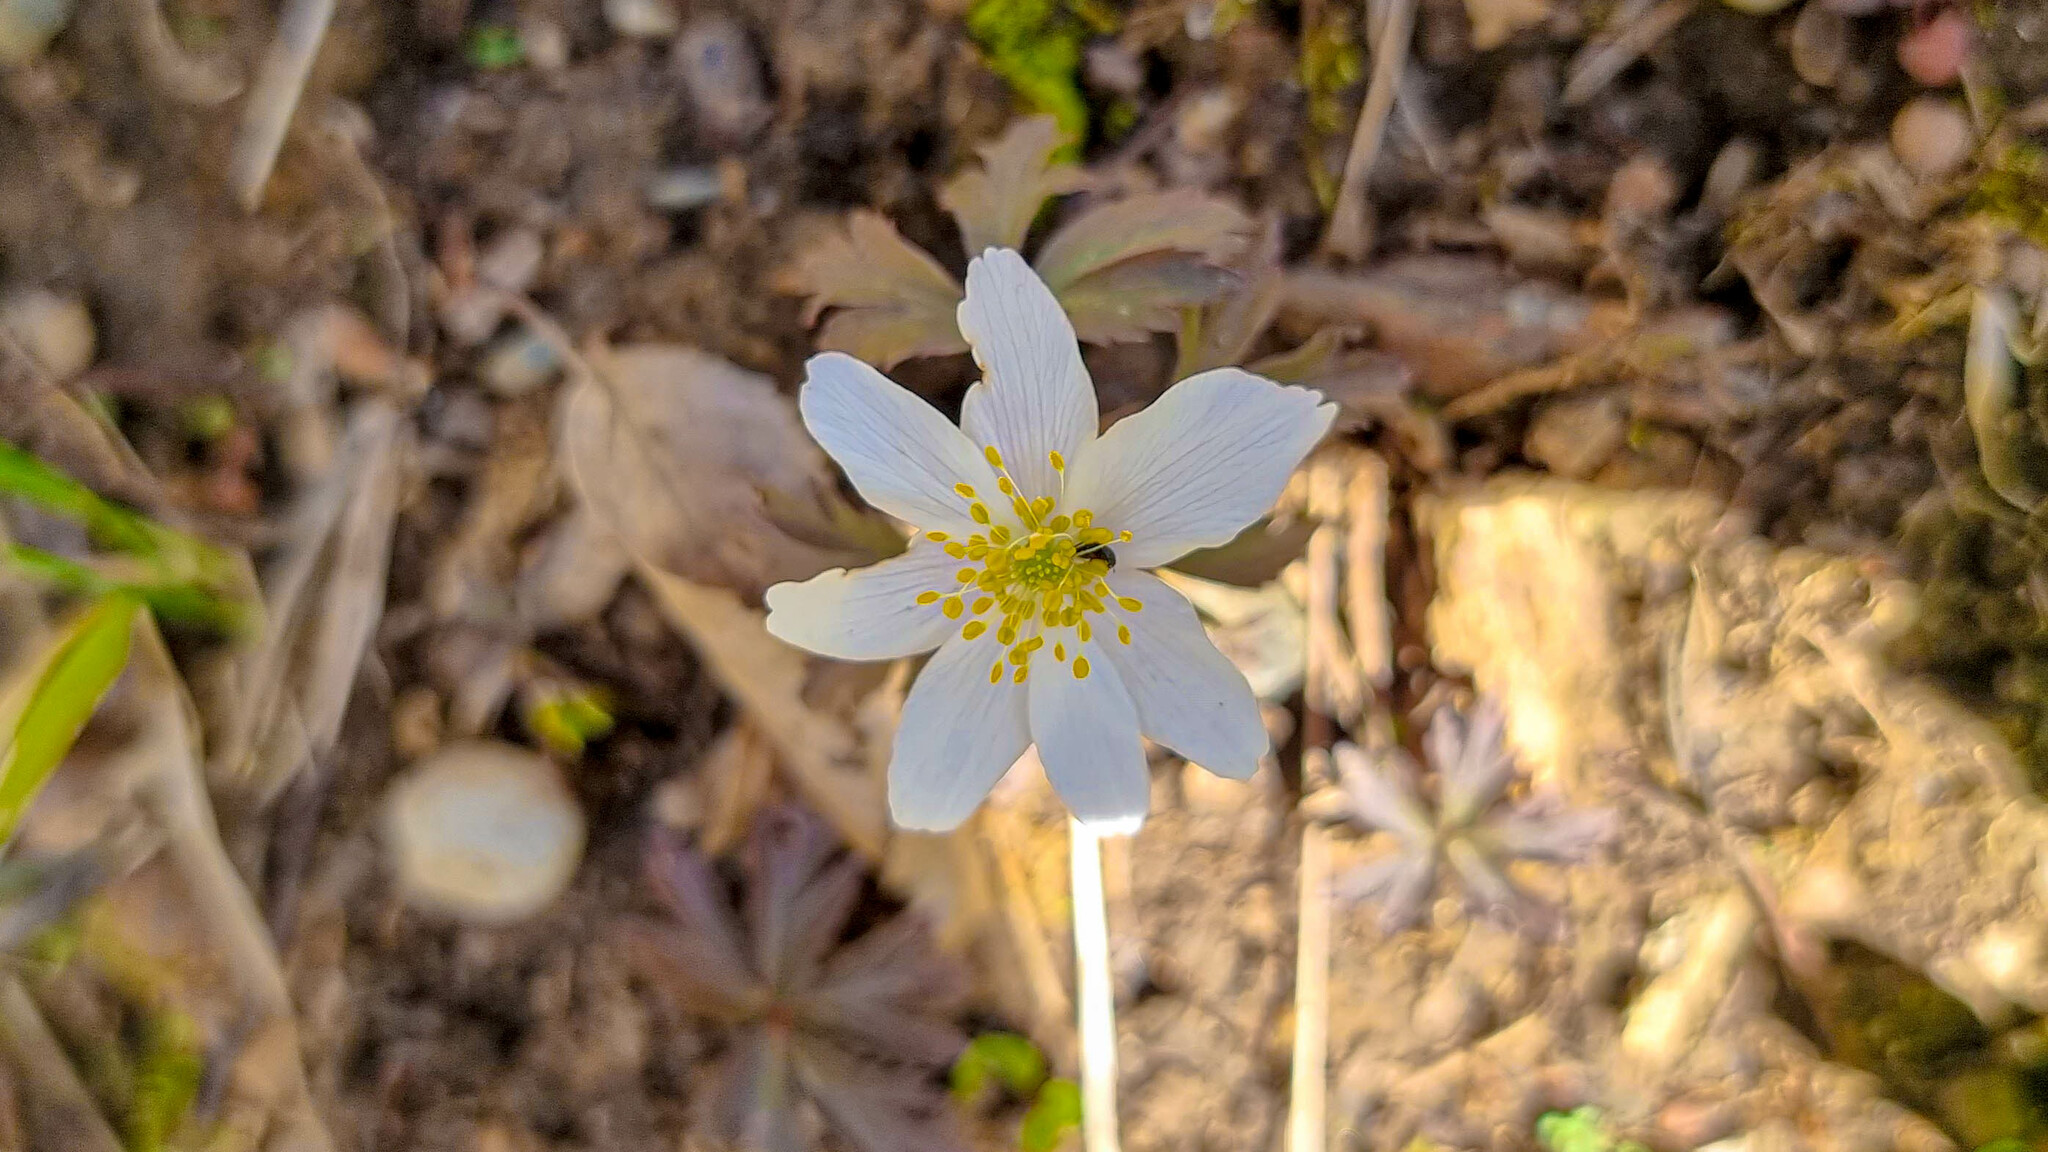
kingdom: Plantae
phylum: Tracheophyta
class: Magnoliopsida
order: Ranunculales
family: Ranunculaceae
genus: Anemone
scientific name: Anemone nemorosa
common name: Wood anemone
